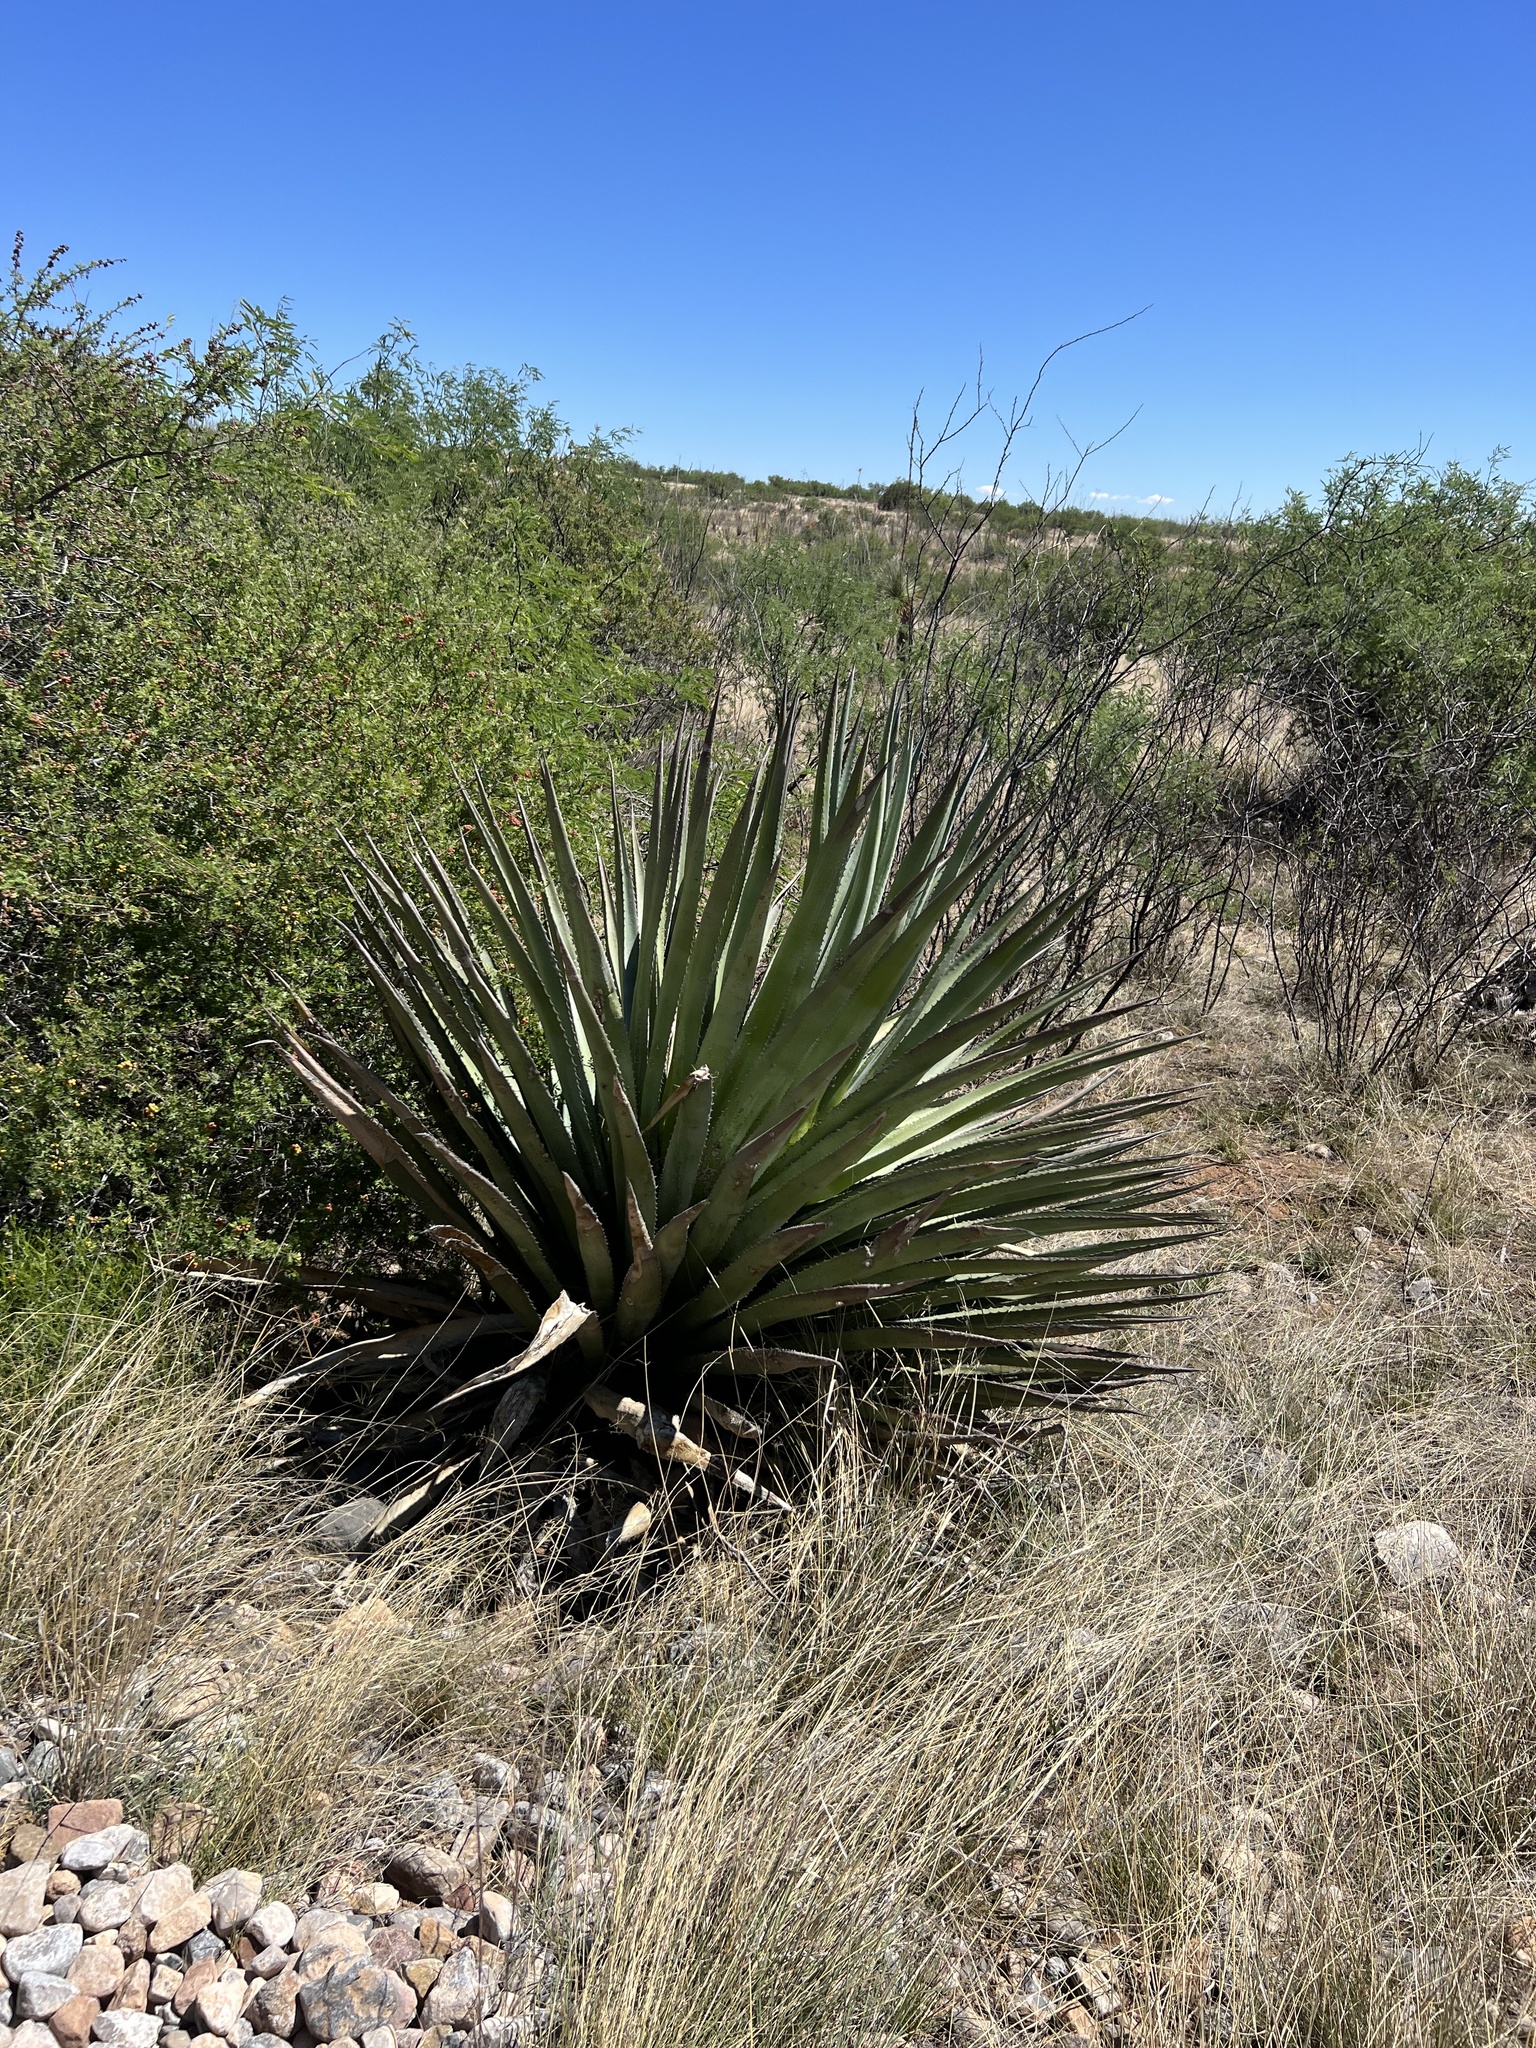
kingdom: Plantae
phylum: Tracheophyta
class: Liliopsida
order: Asparagales
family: Asparagaceae
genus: Agave
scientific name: Agave palmeri
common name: Palmer agave
